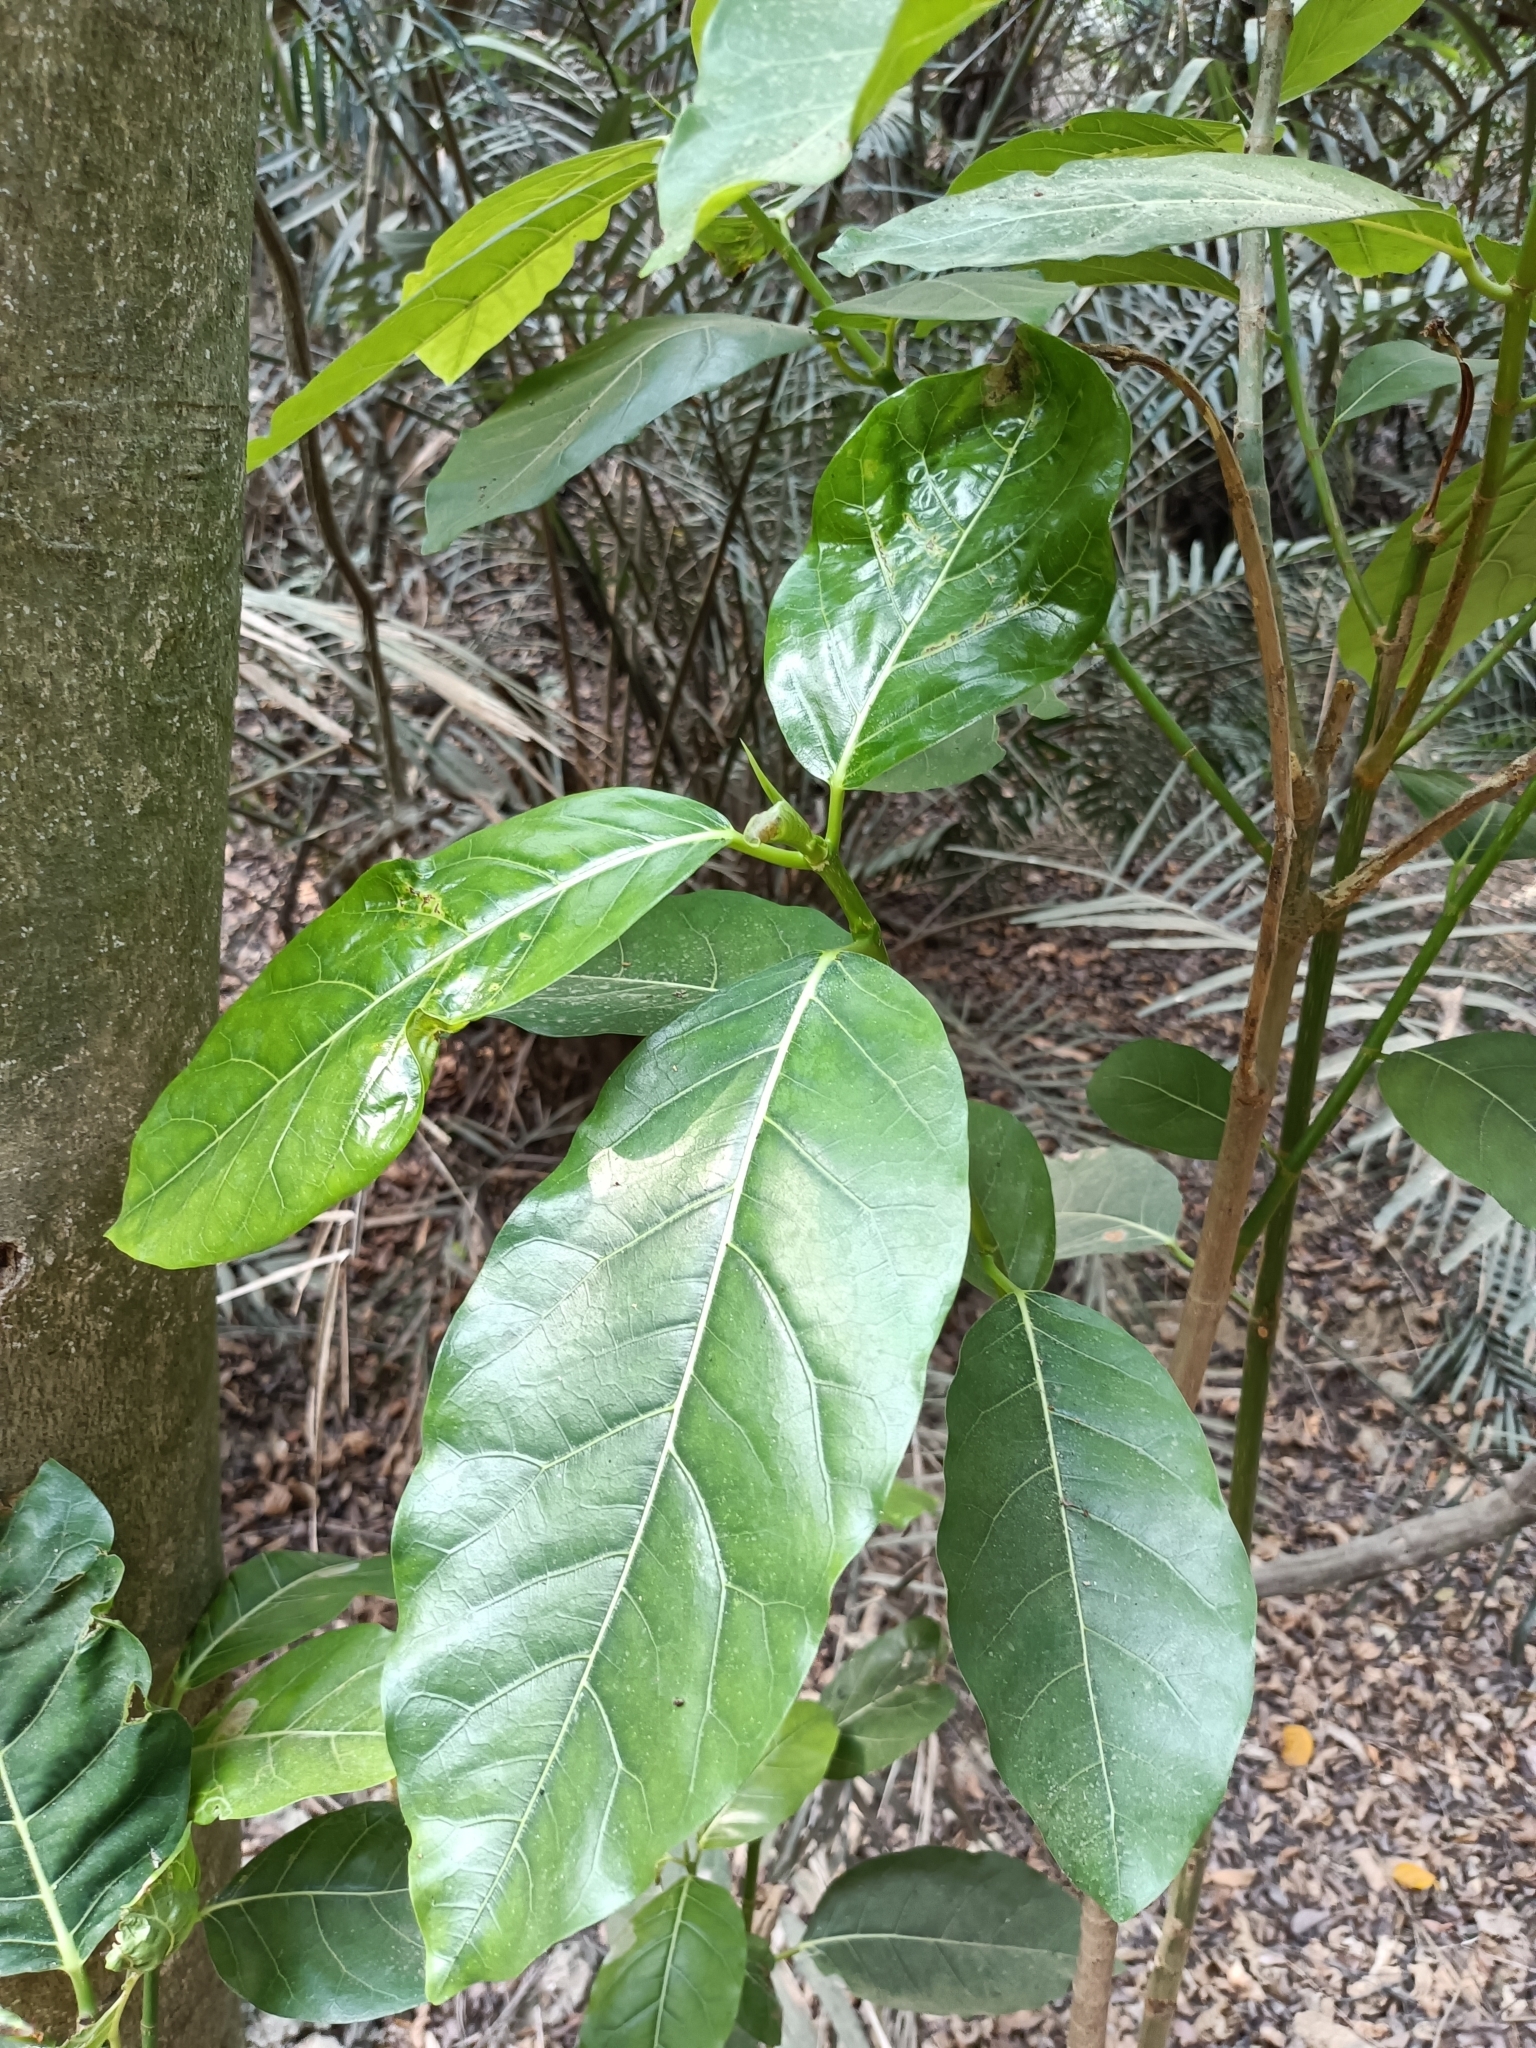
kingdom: Plantae
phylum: Tracheophyta
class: Magnoliopsida
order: Rosales
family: Moraceae
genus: Ficus
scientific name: Ficus septica
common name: Septic fig
